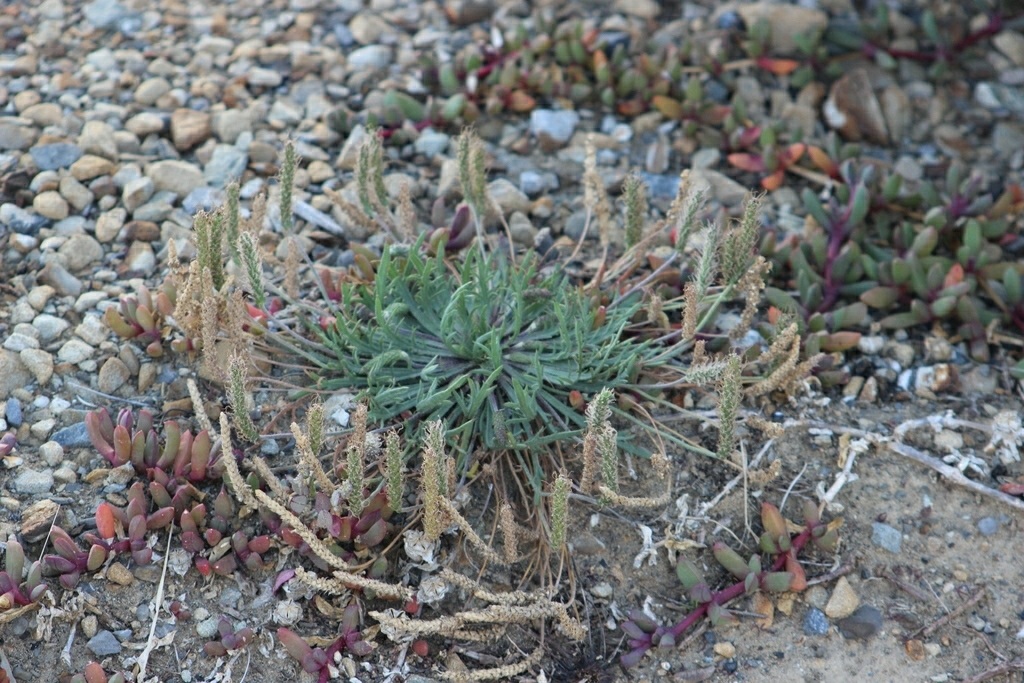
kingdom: Plantae
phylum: Tracheophyta
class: Magnoliopsida
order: Caryophyllales
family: Aizoaceae
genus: Disphyma
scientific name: Disphyma australe
